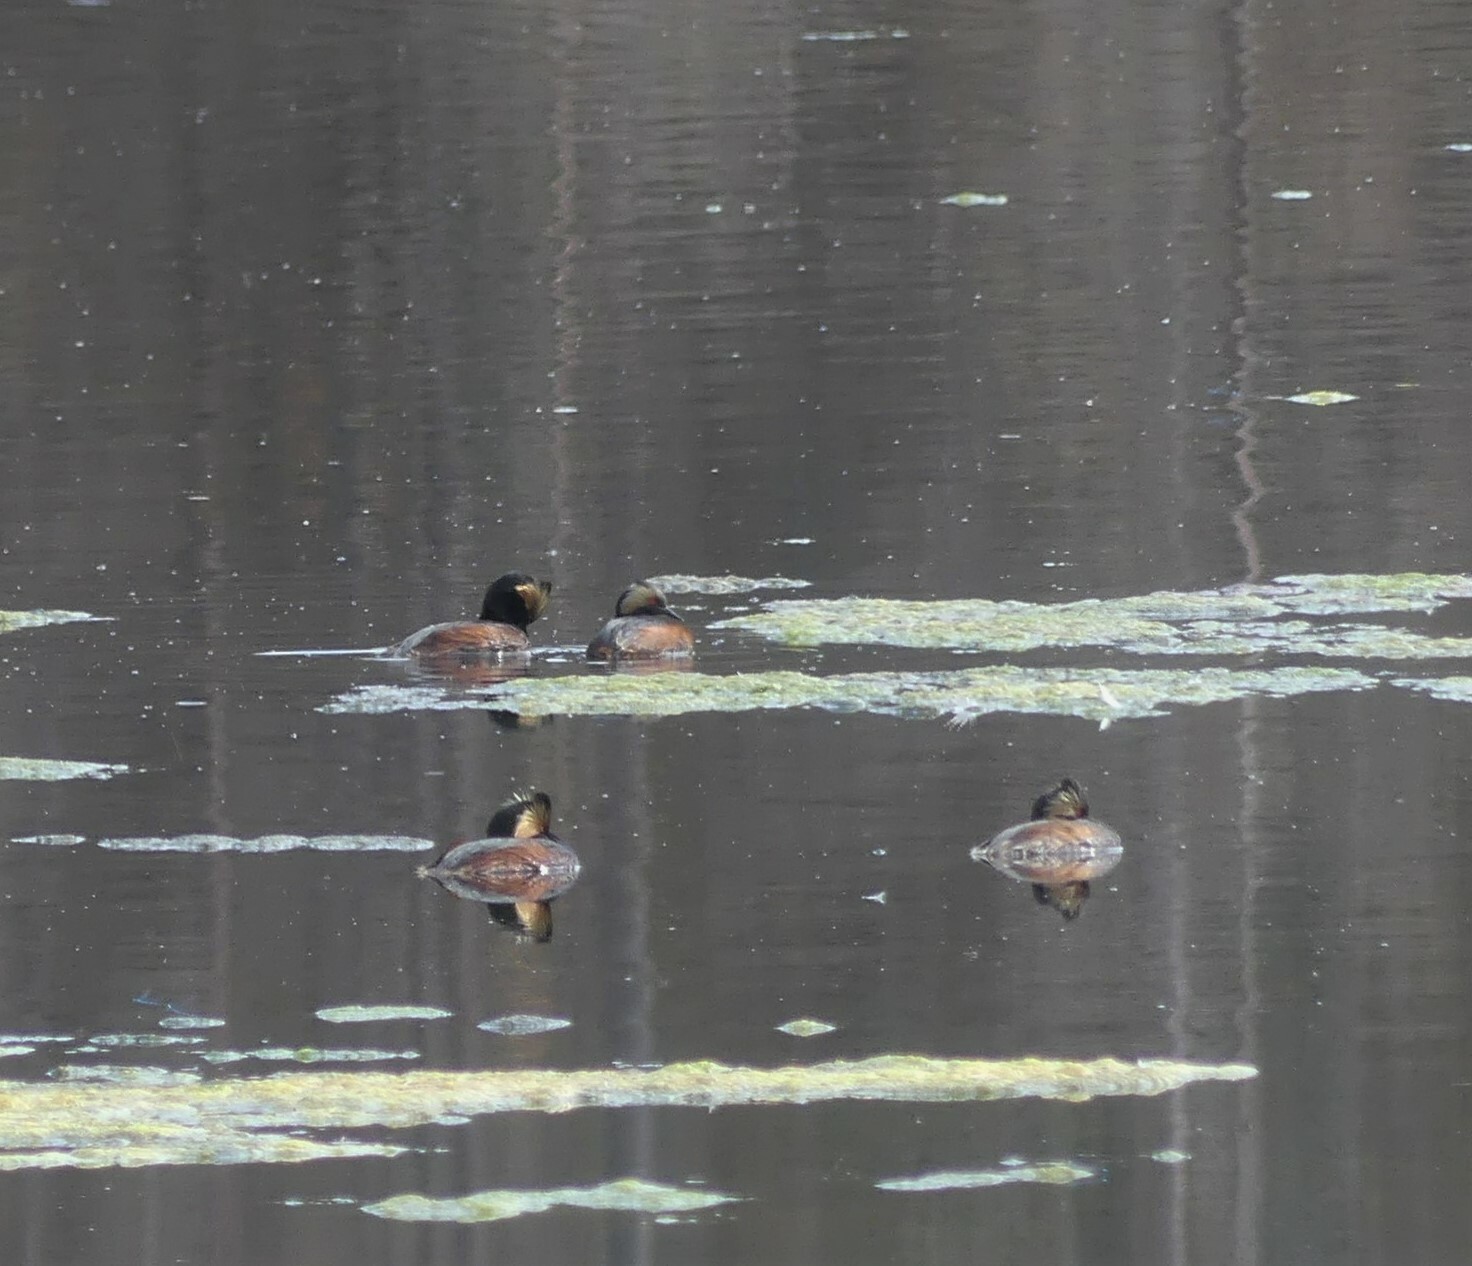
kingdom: Animalia
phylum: Chordata
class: Aves
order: Podicipediformes
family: Podicipedidae
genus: Podiceps
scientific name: Podiceps nigricollis
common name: Black-necked grebe
